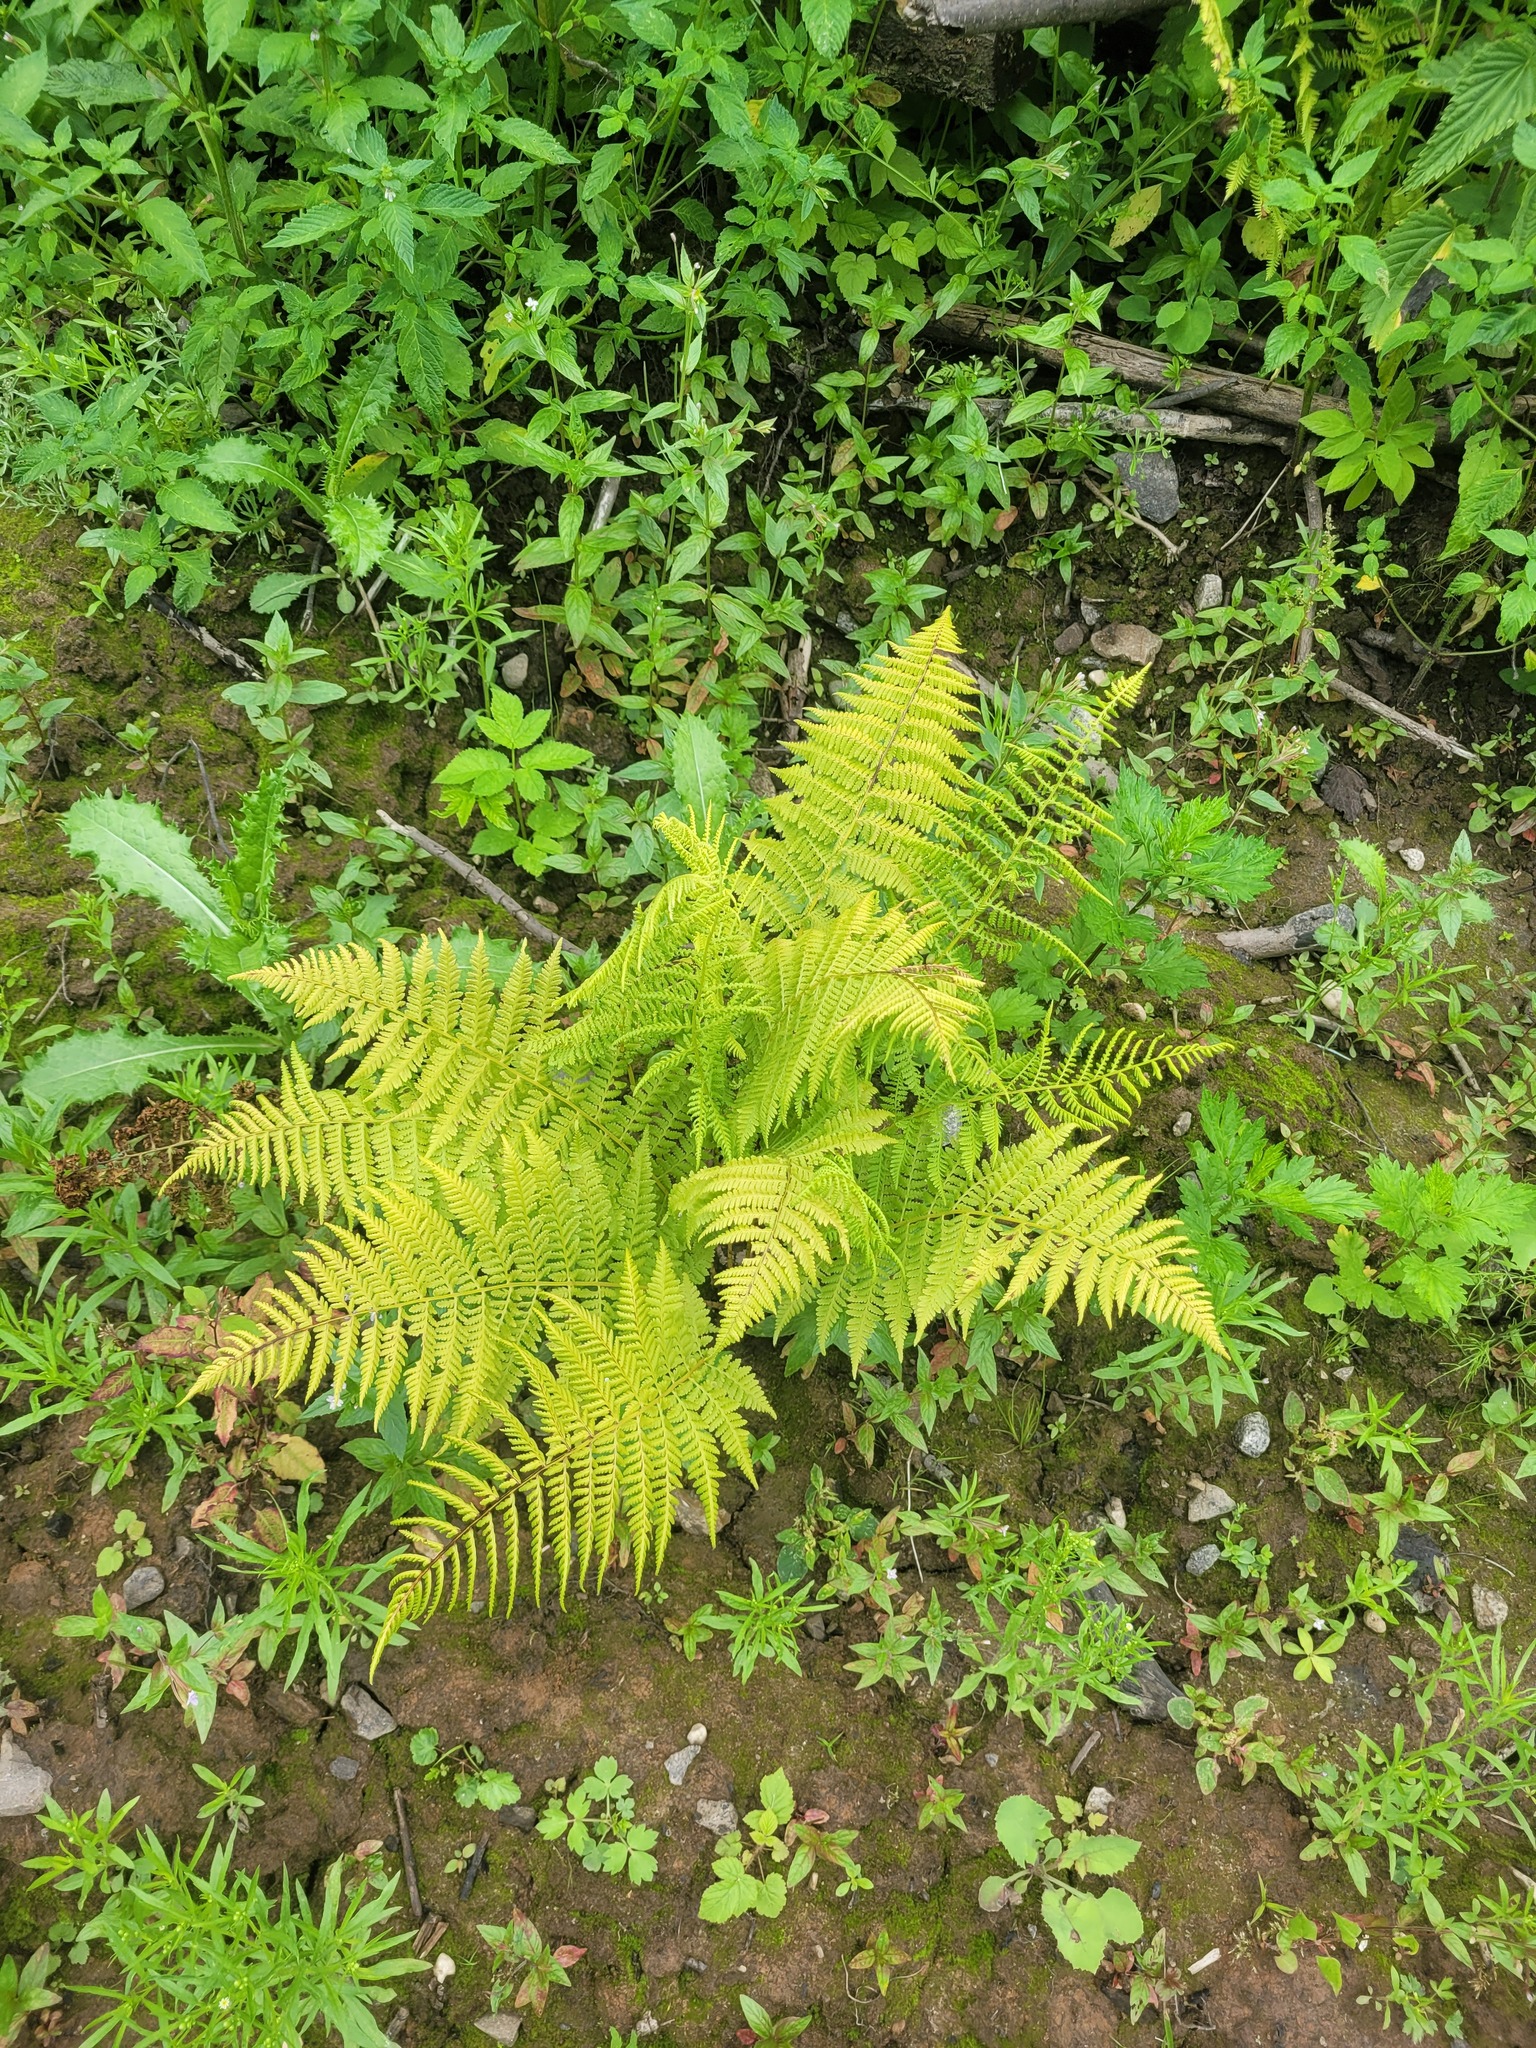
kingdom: Plantae
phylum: Tracheophyta
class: Polypodiopsida
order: Polypodiales
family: Athyriaceae
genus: Athyrium
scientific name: Athyrium filix-femina
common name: Lady fern
